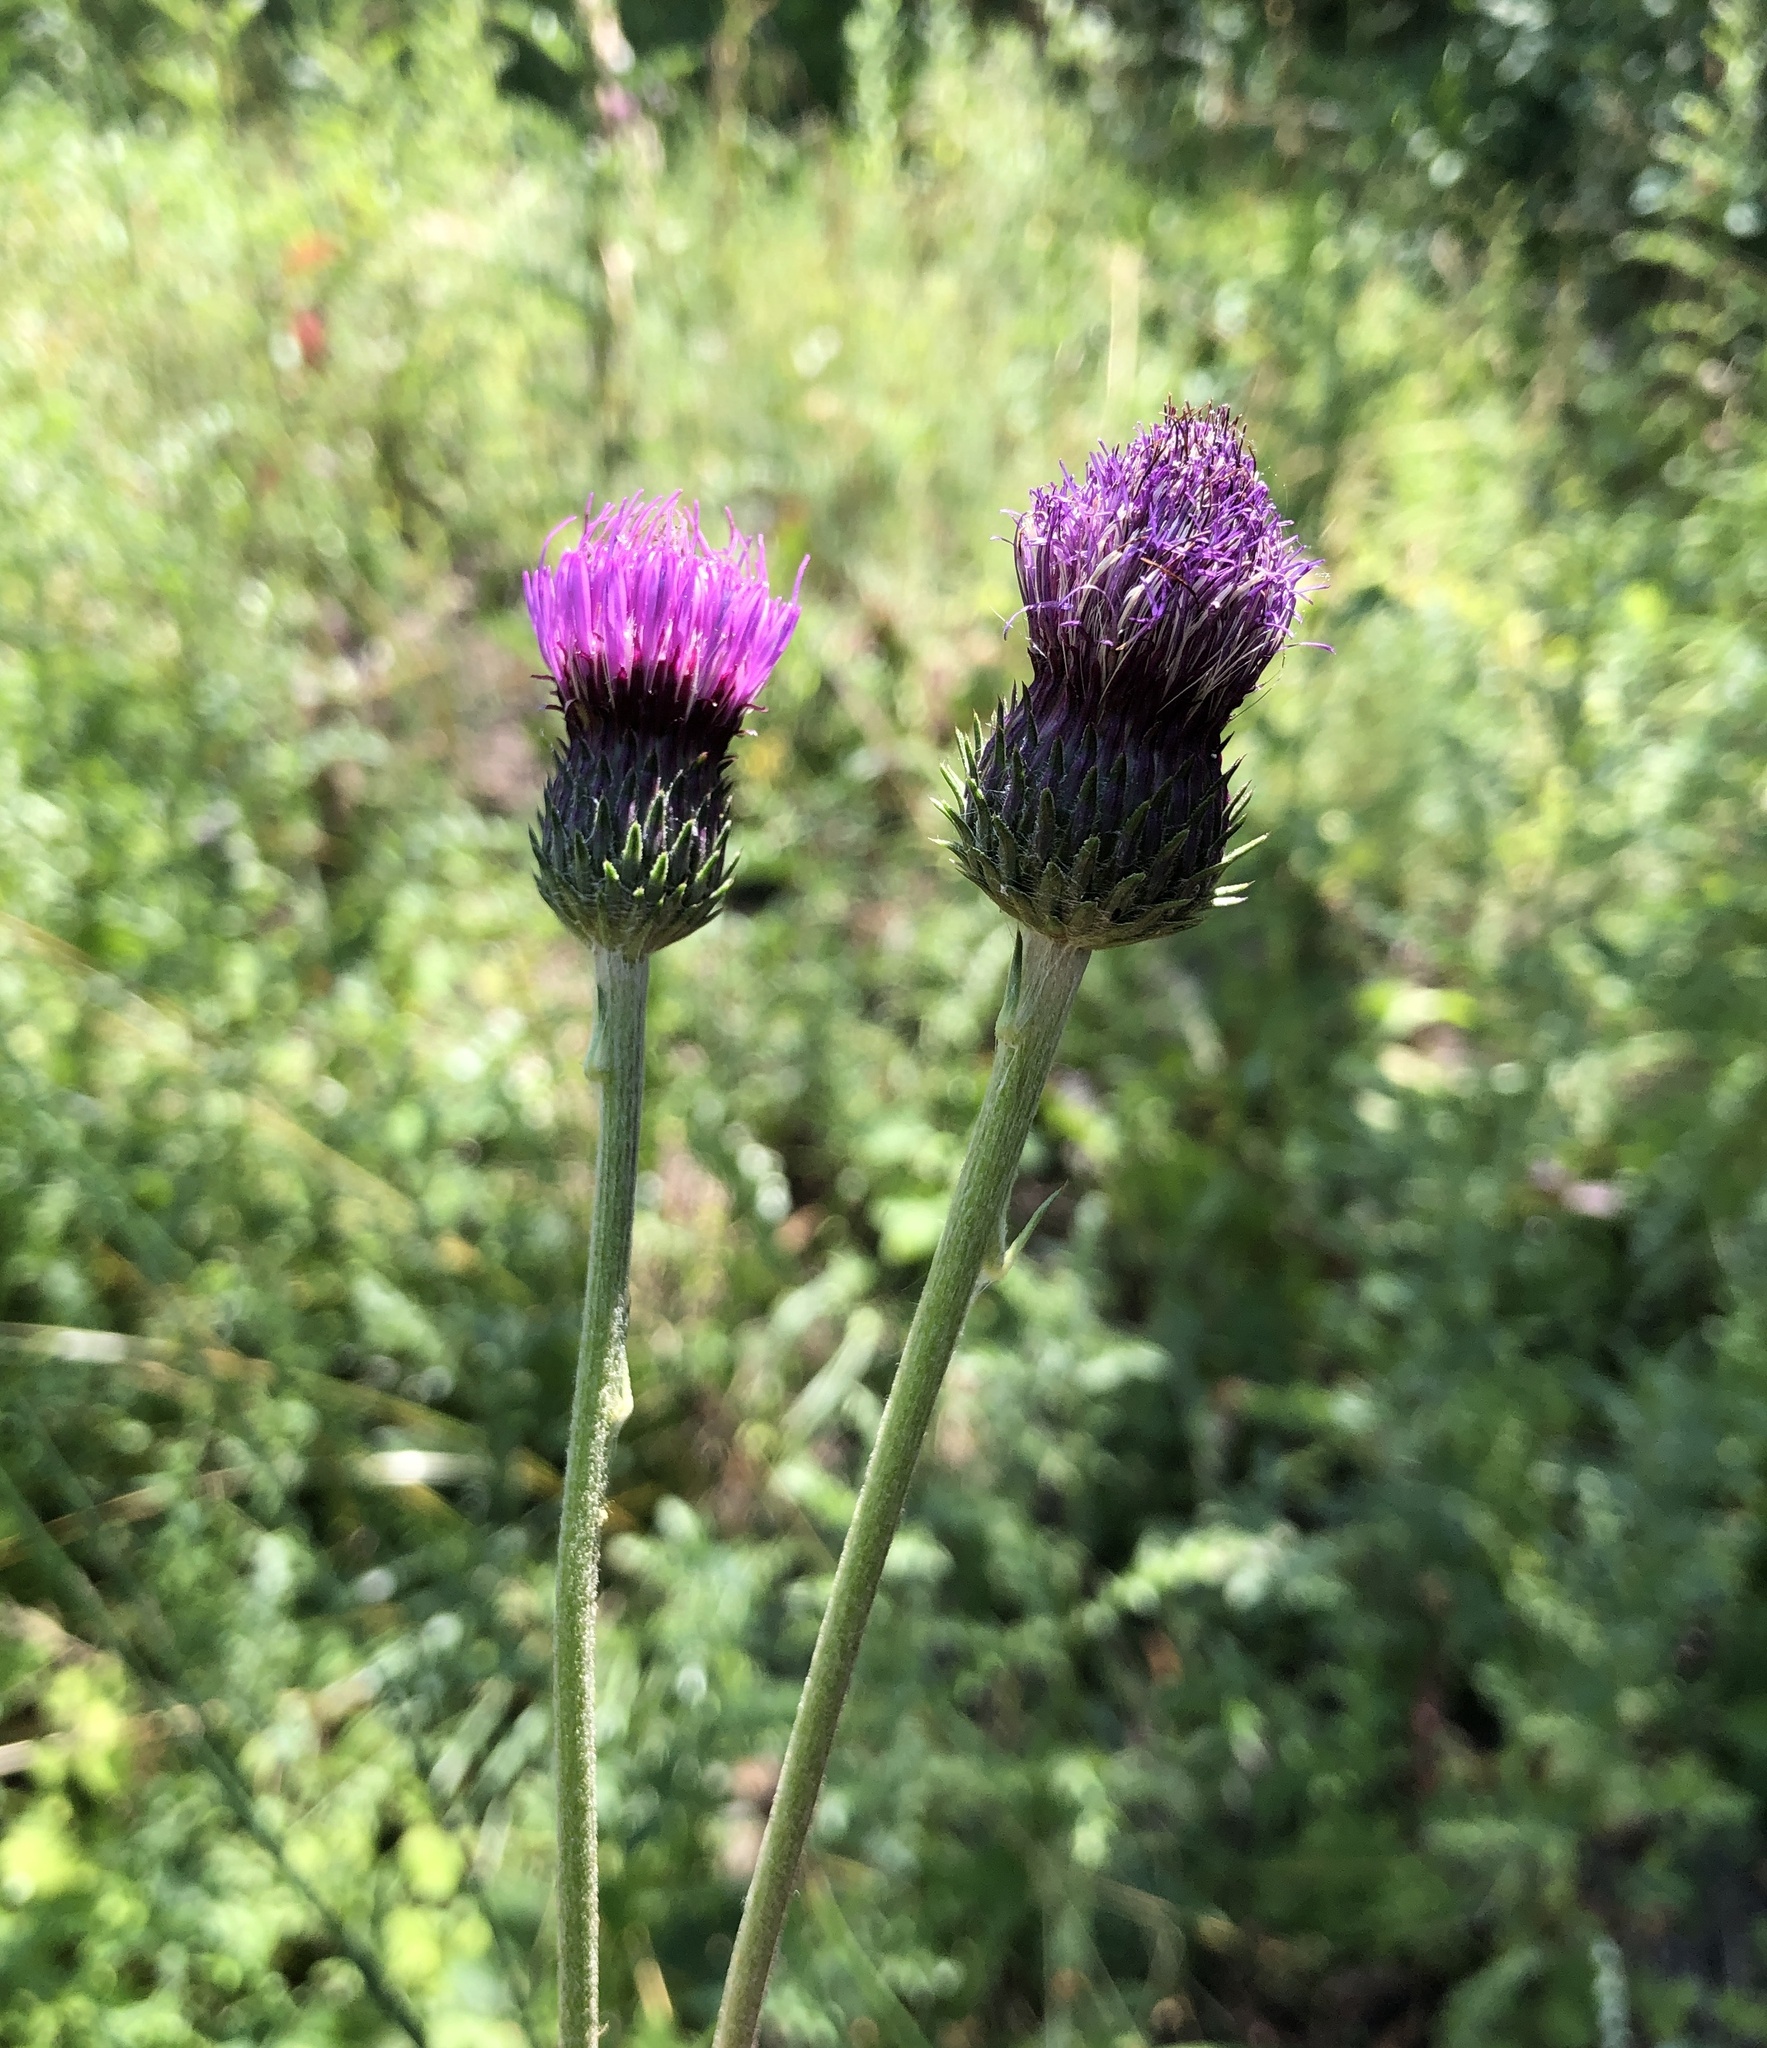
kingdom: Plantae
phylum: Tracheophyta
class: Magnoliopsida
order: Asterales
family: Asteraceae
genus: Cirsium
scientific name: Cirsium tuberosum
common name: Tuberous thistle
